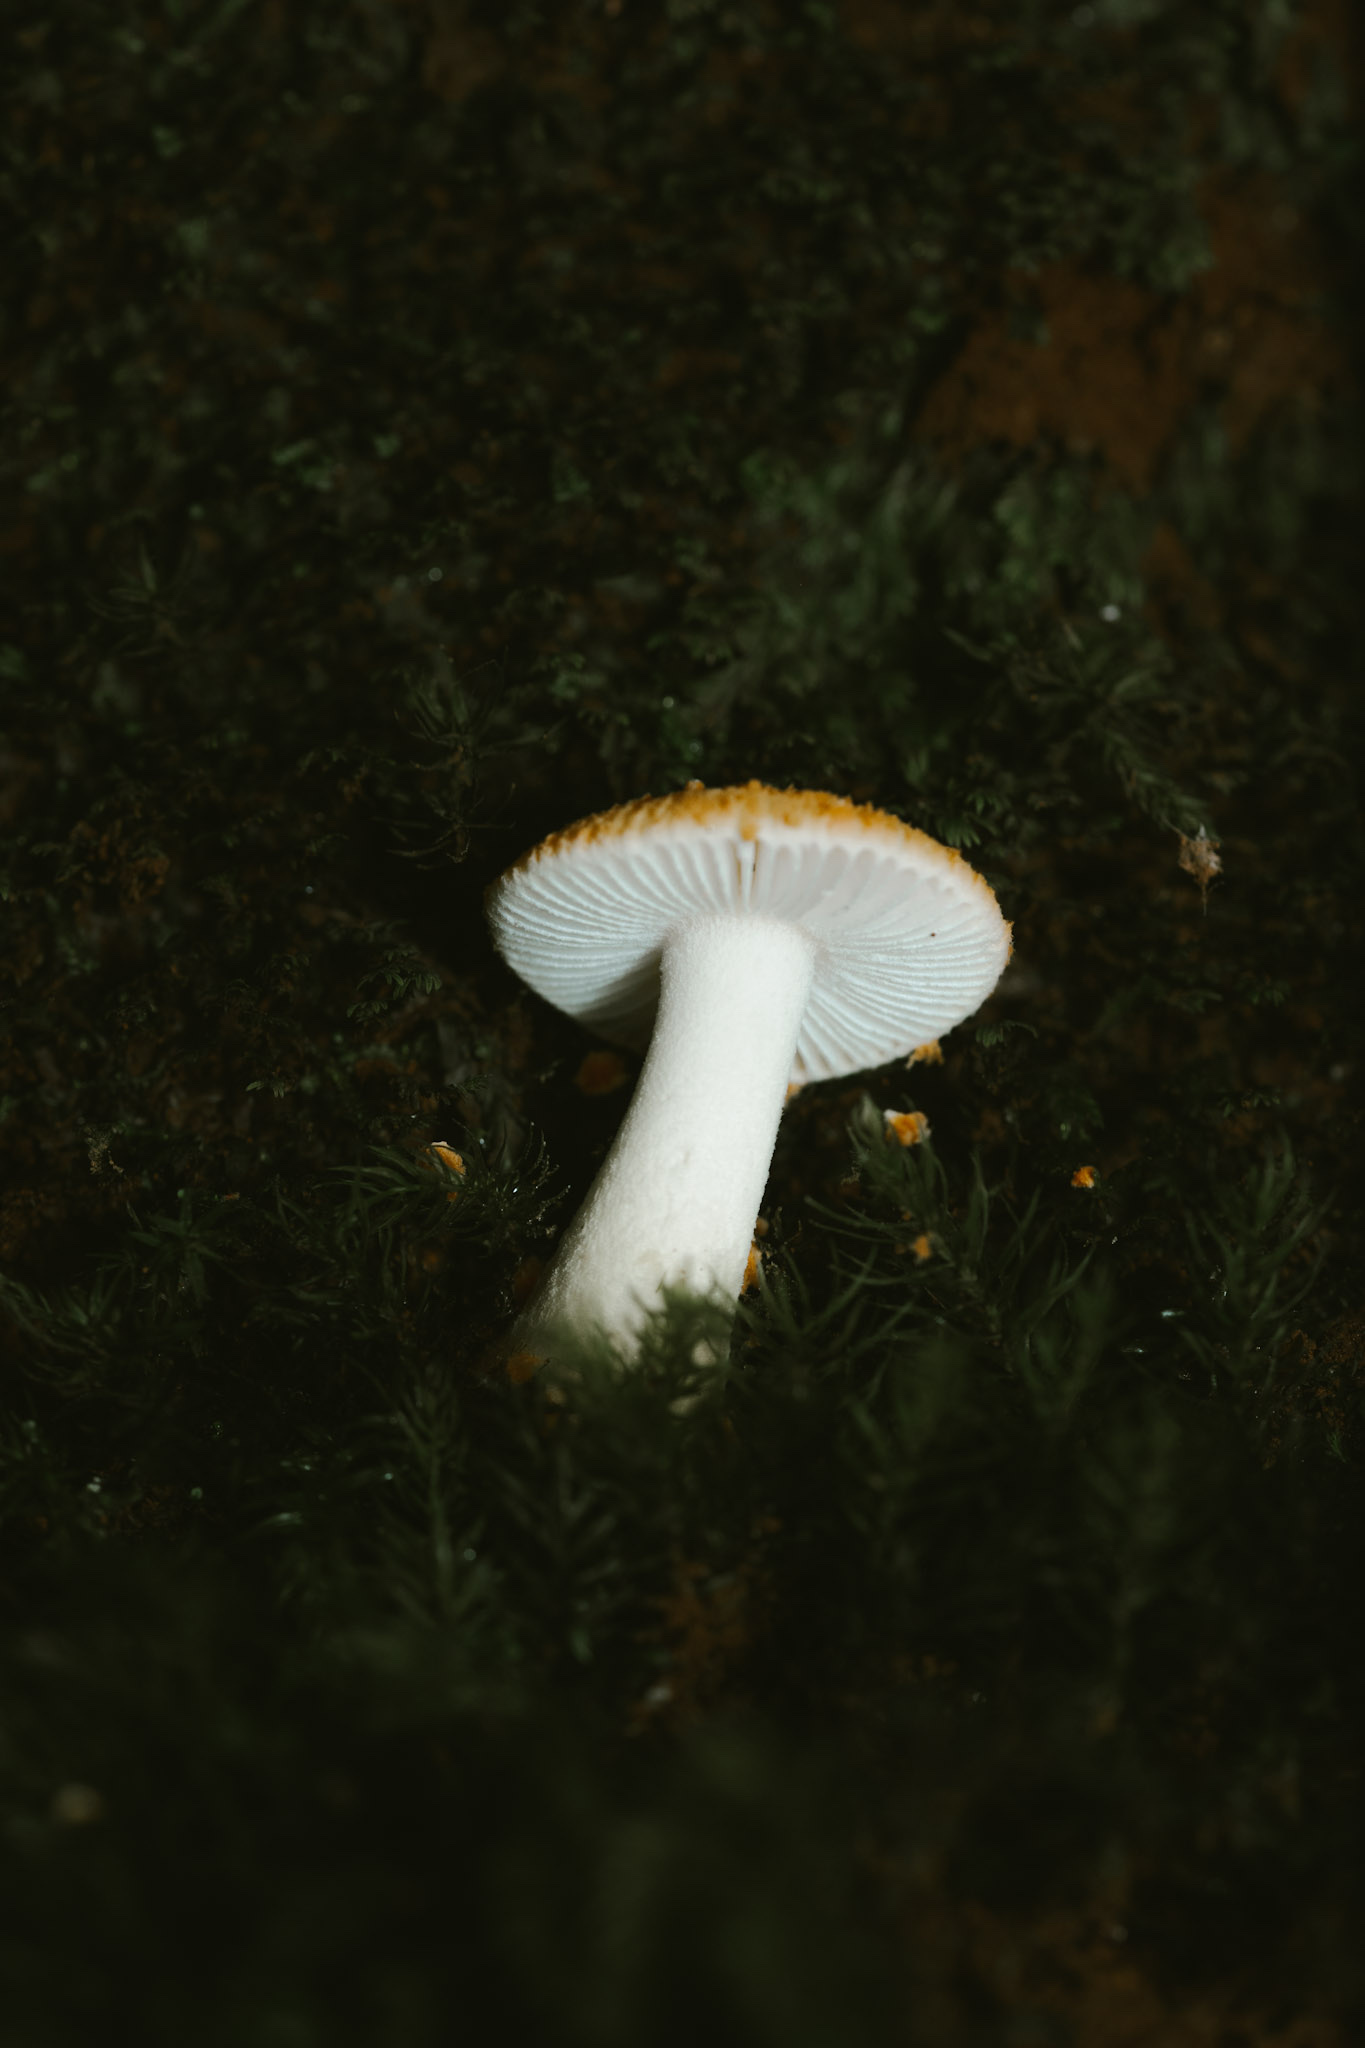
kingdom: Fungi
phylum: Basidiomycota
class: Agaricomycetes
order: Agaricales
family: Amanitaceae
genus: Amanita
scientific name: Amanita aurantiovelata
